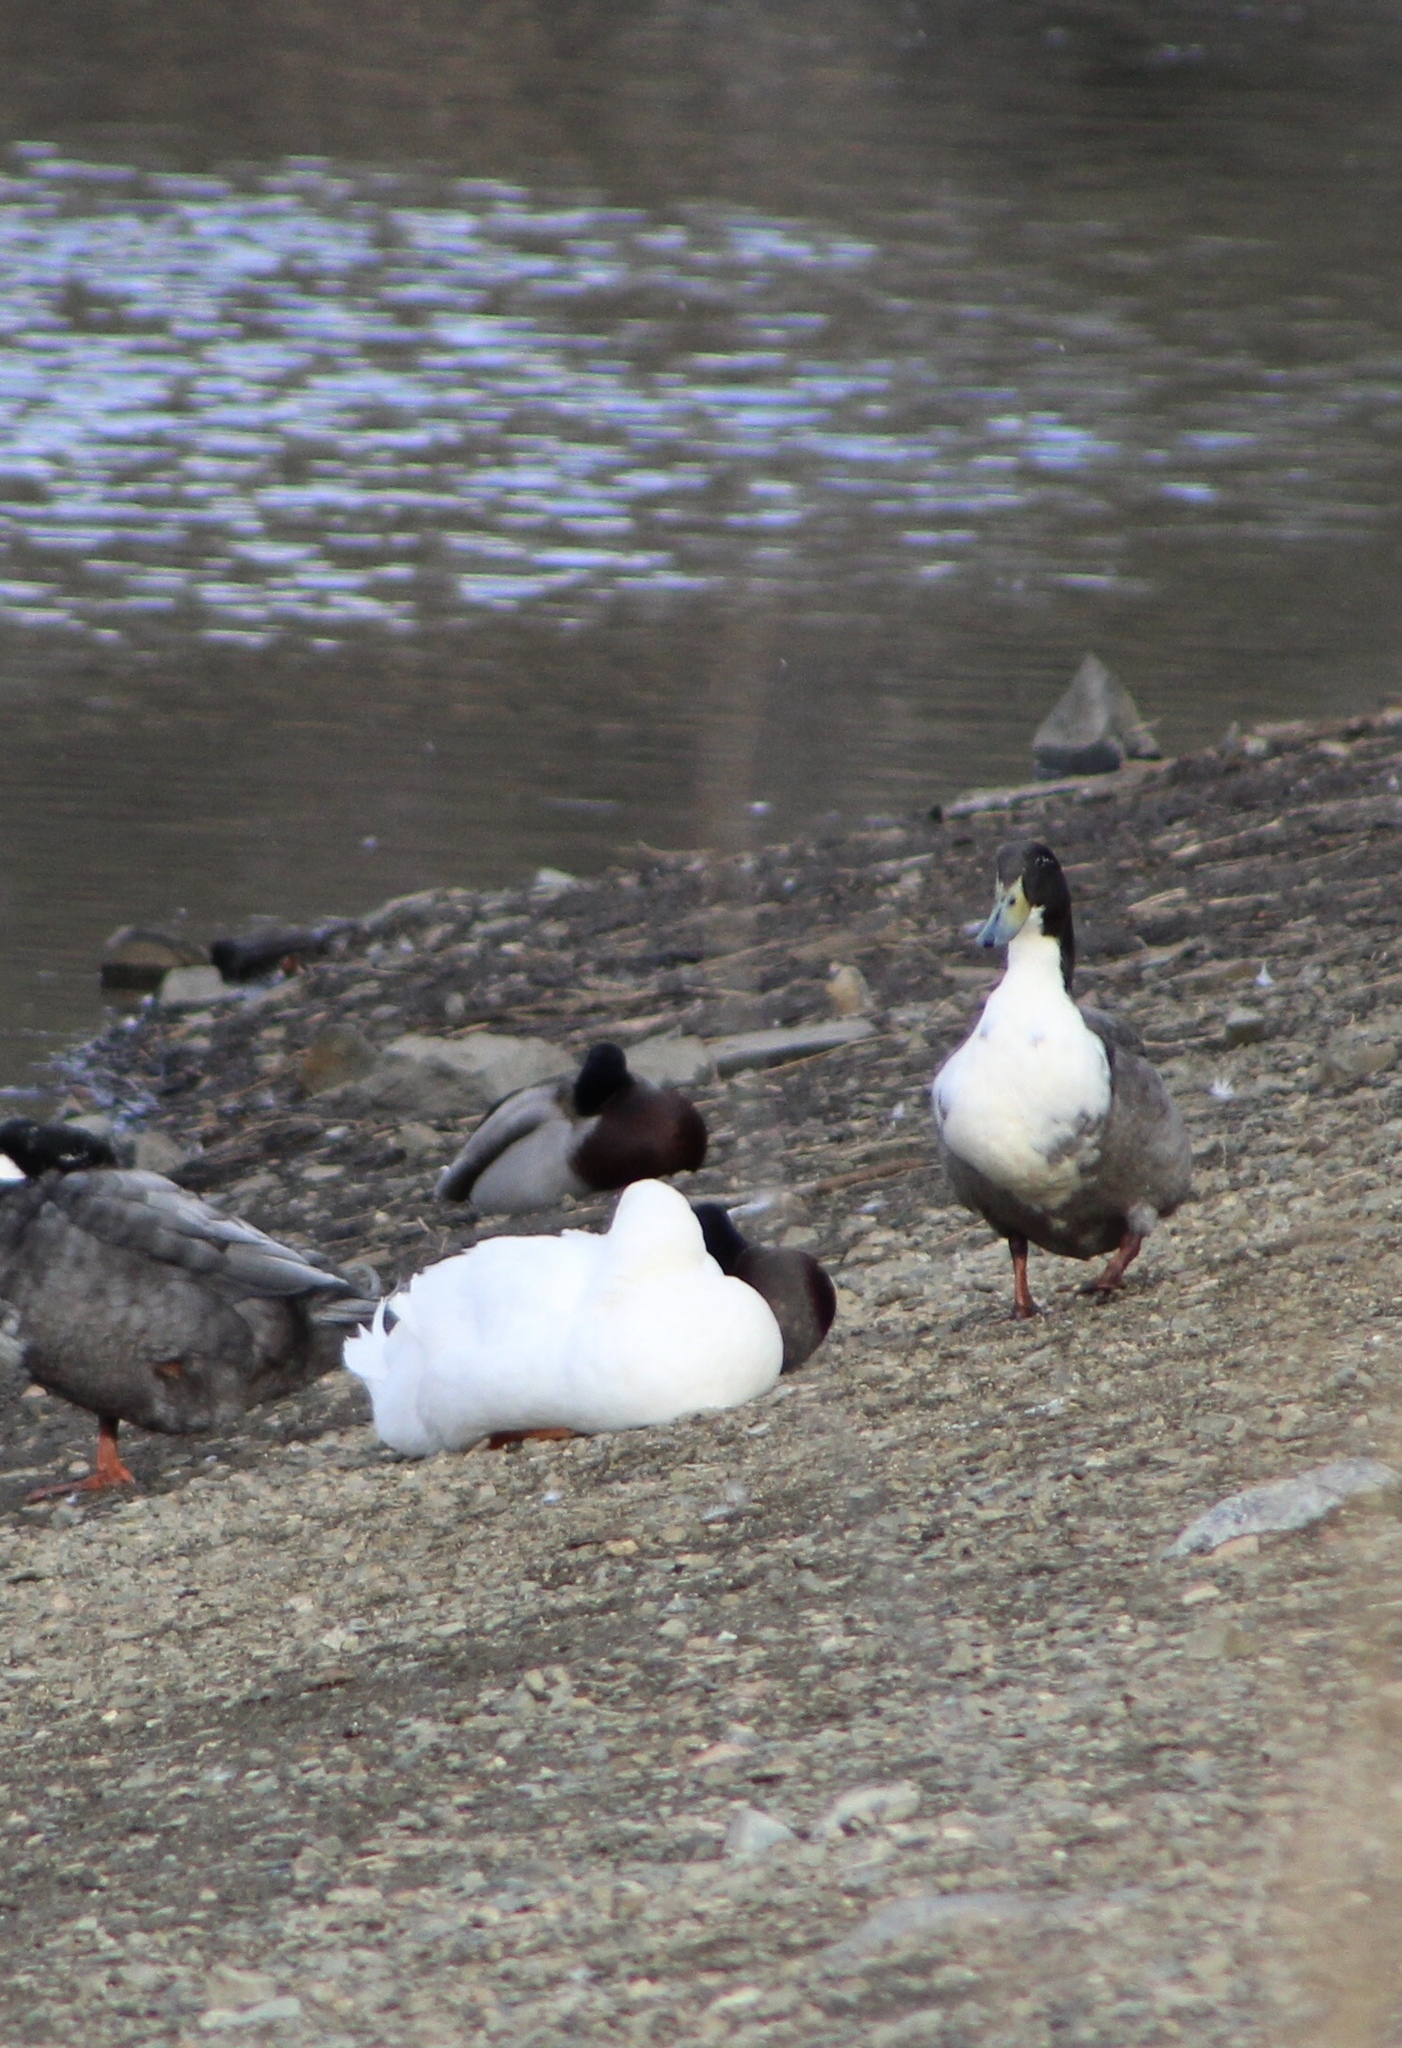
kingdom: Animalia
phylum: Chordata
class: Aves
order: Anseriformes
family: Anatidae
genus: Anas
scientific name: Anas platyrhynchos
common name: Mallard
